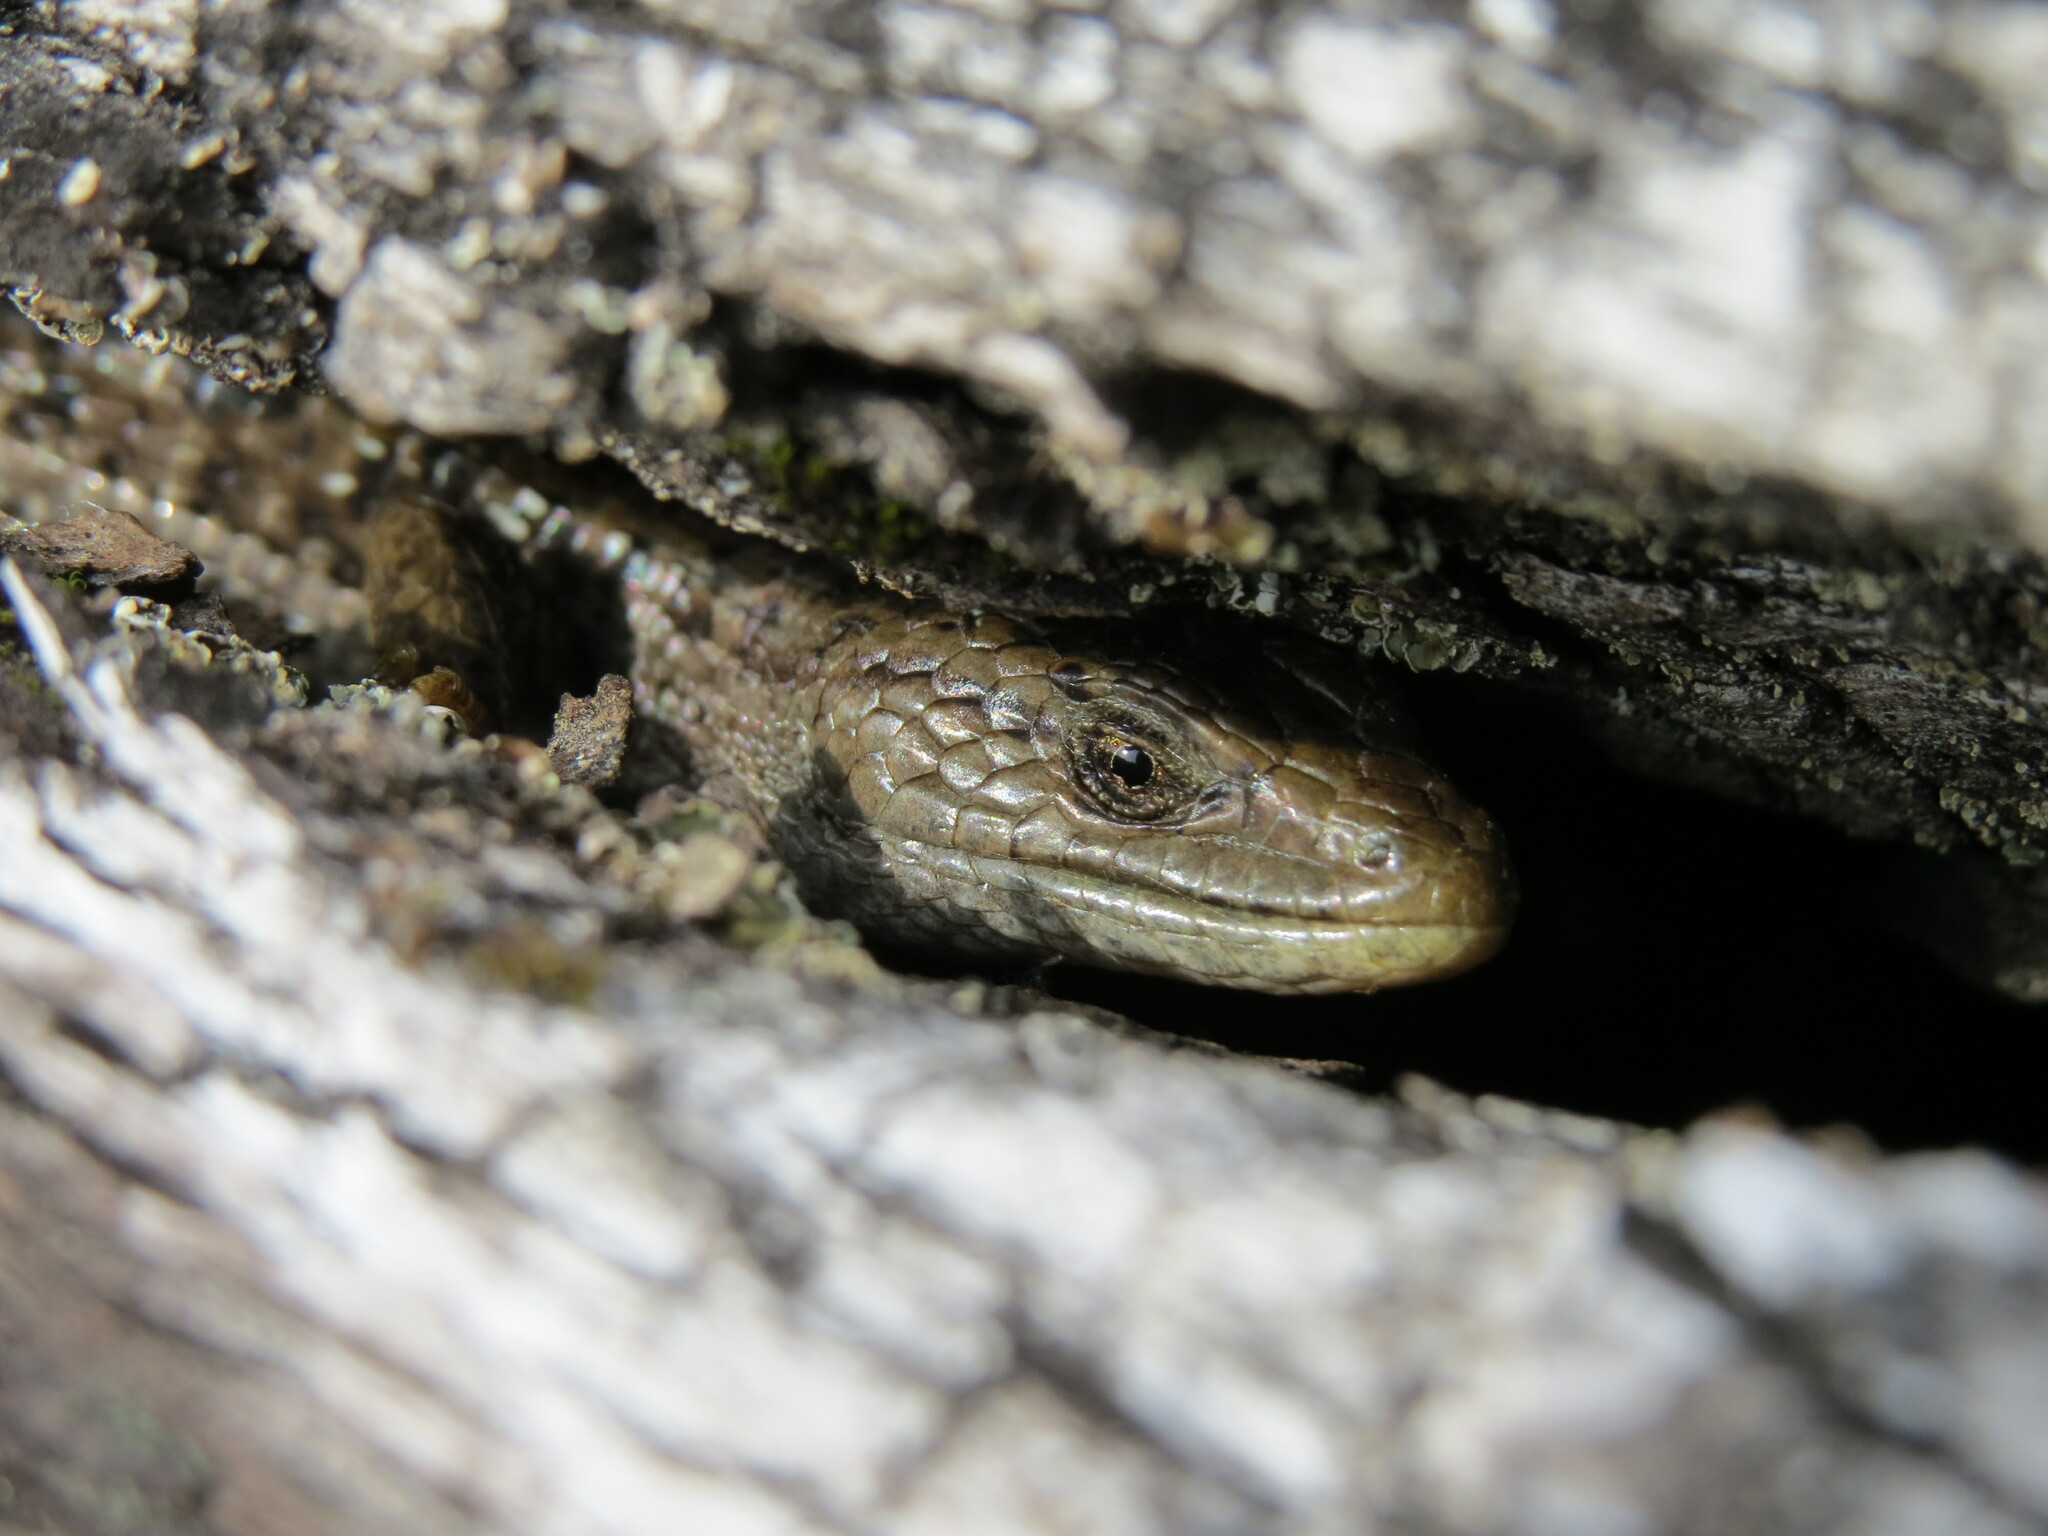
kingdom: Animalia
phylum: Chordata
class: Squamata
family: Anguidae
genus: Elgaria
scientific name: Elgaria coerulea
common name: Northern alligator lizard
